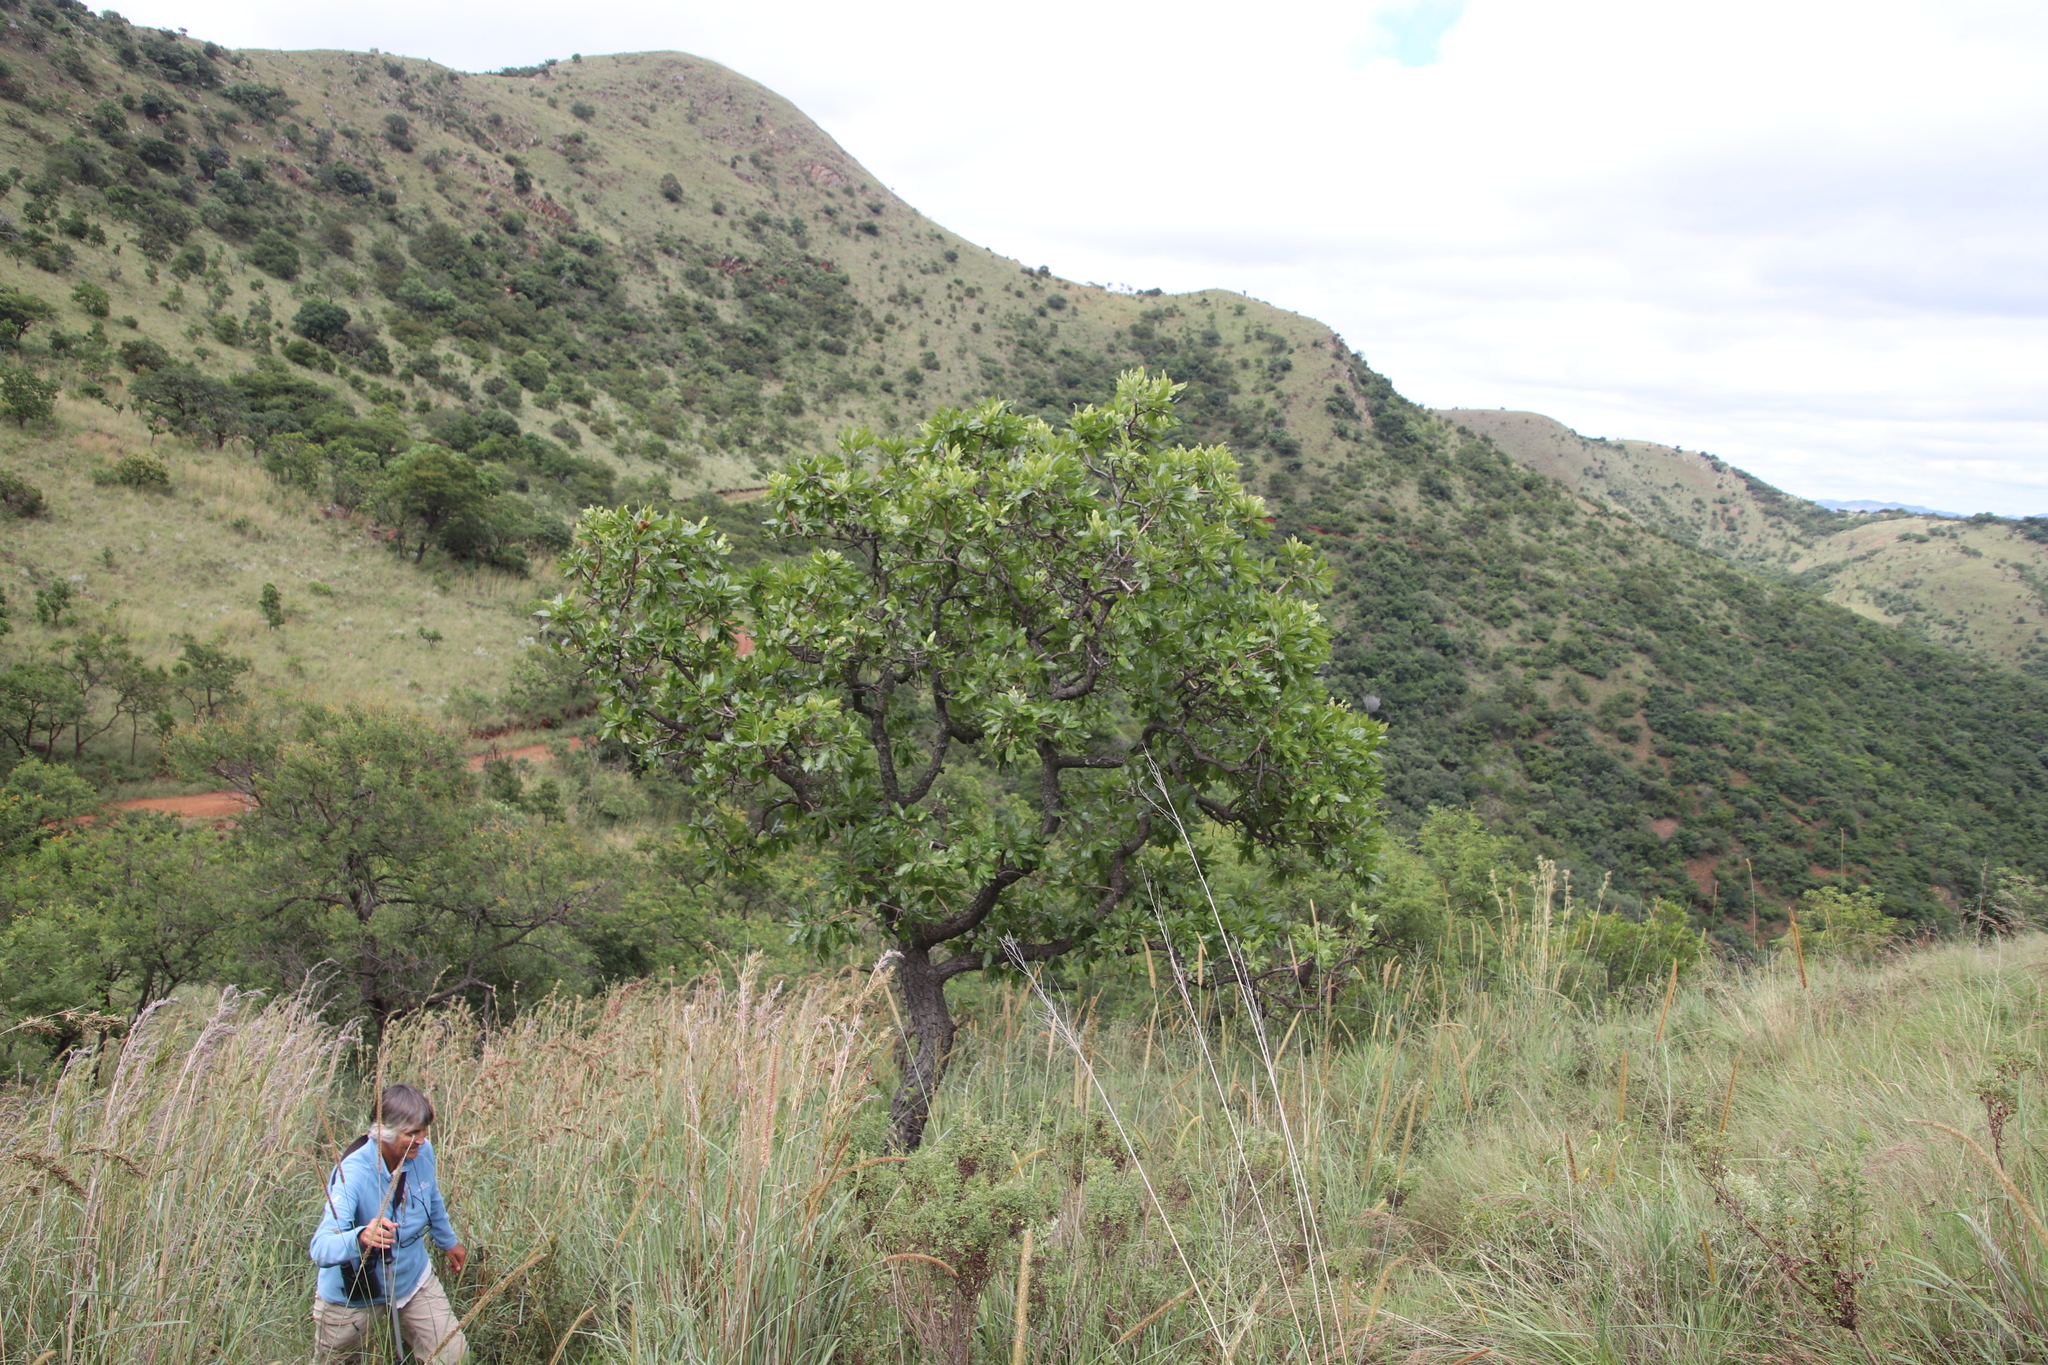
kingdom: Plantae
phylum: Tracheophyta
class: Magnoliopsida
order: Proteales
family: Proteaceae
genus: Faurea
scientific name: Faurea rochetiana
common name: Broad-leaved beech
